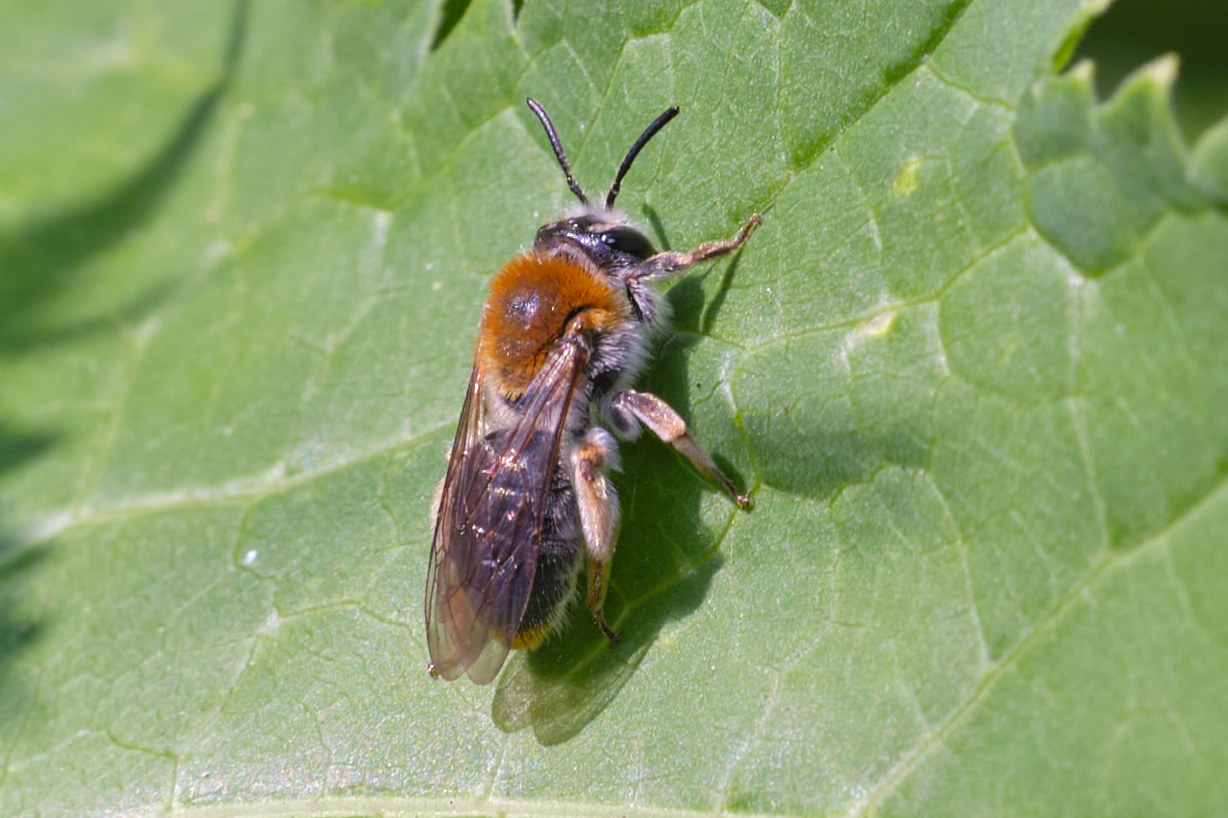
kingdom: Animalia
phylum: Arthropoda
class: Insecta
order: Hymenoptera
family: Andrenidae
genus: Andrena
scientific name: Andrena haemorrhoa
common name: Early mining bee
